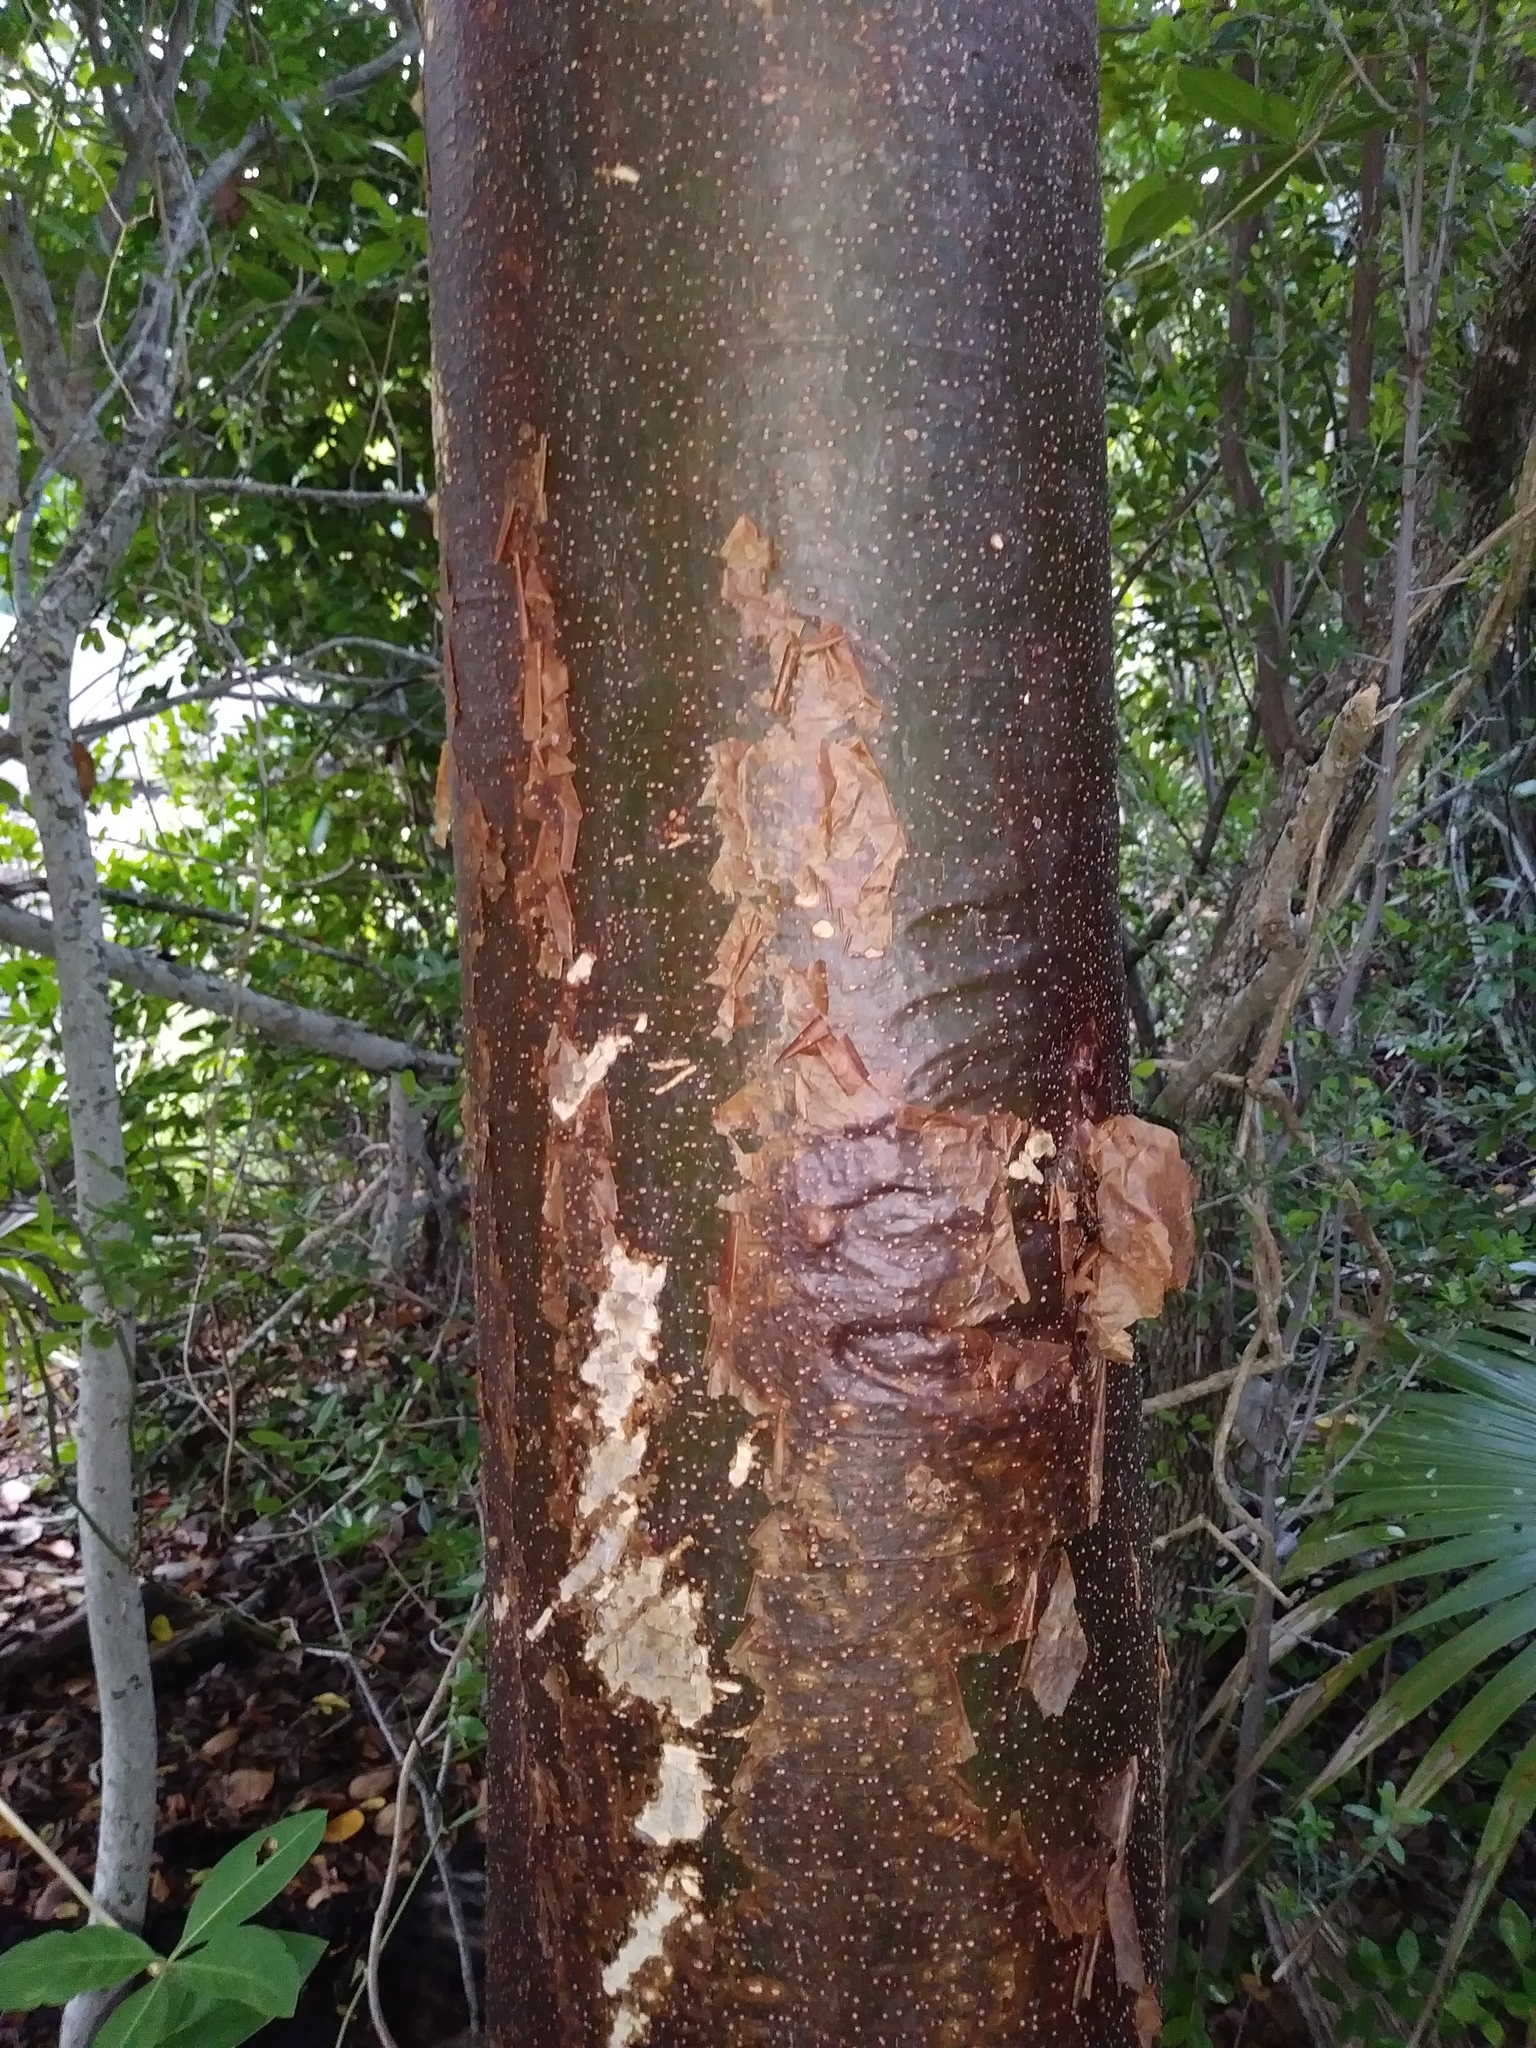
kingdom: Plantae
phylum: Tracheophyta
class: Magnoliopsida
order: Sapindales
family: Burseraceae
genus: Bursera
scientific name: Bursera simaruba
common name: Turpentine tree
